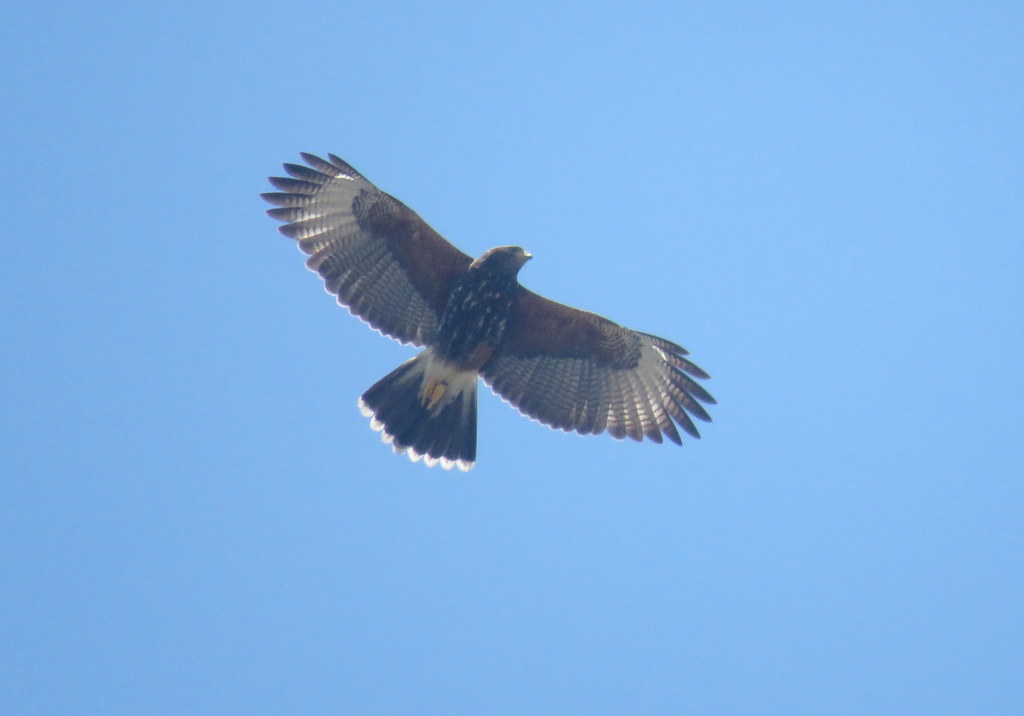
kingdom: Animalia
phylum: Chordata
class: Aves
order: Accipitriformes
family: Accipitridae
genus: Parabuteo
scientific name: Parabuteo unicinctus
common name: Harris's hawk
